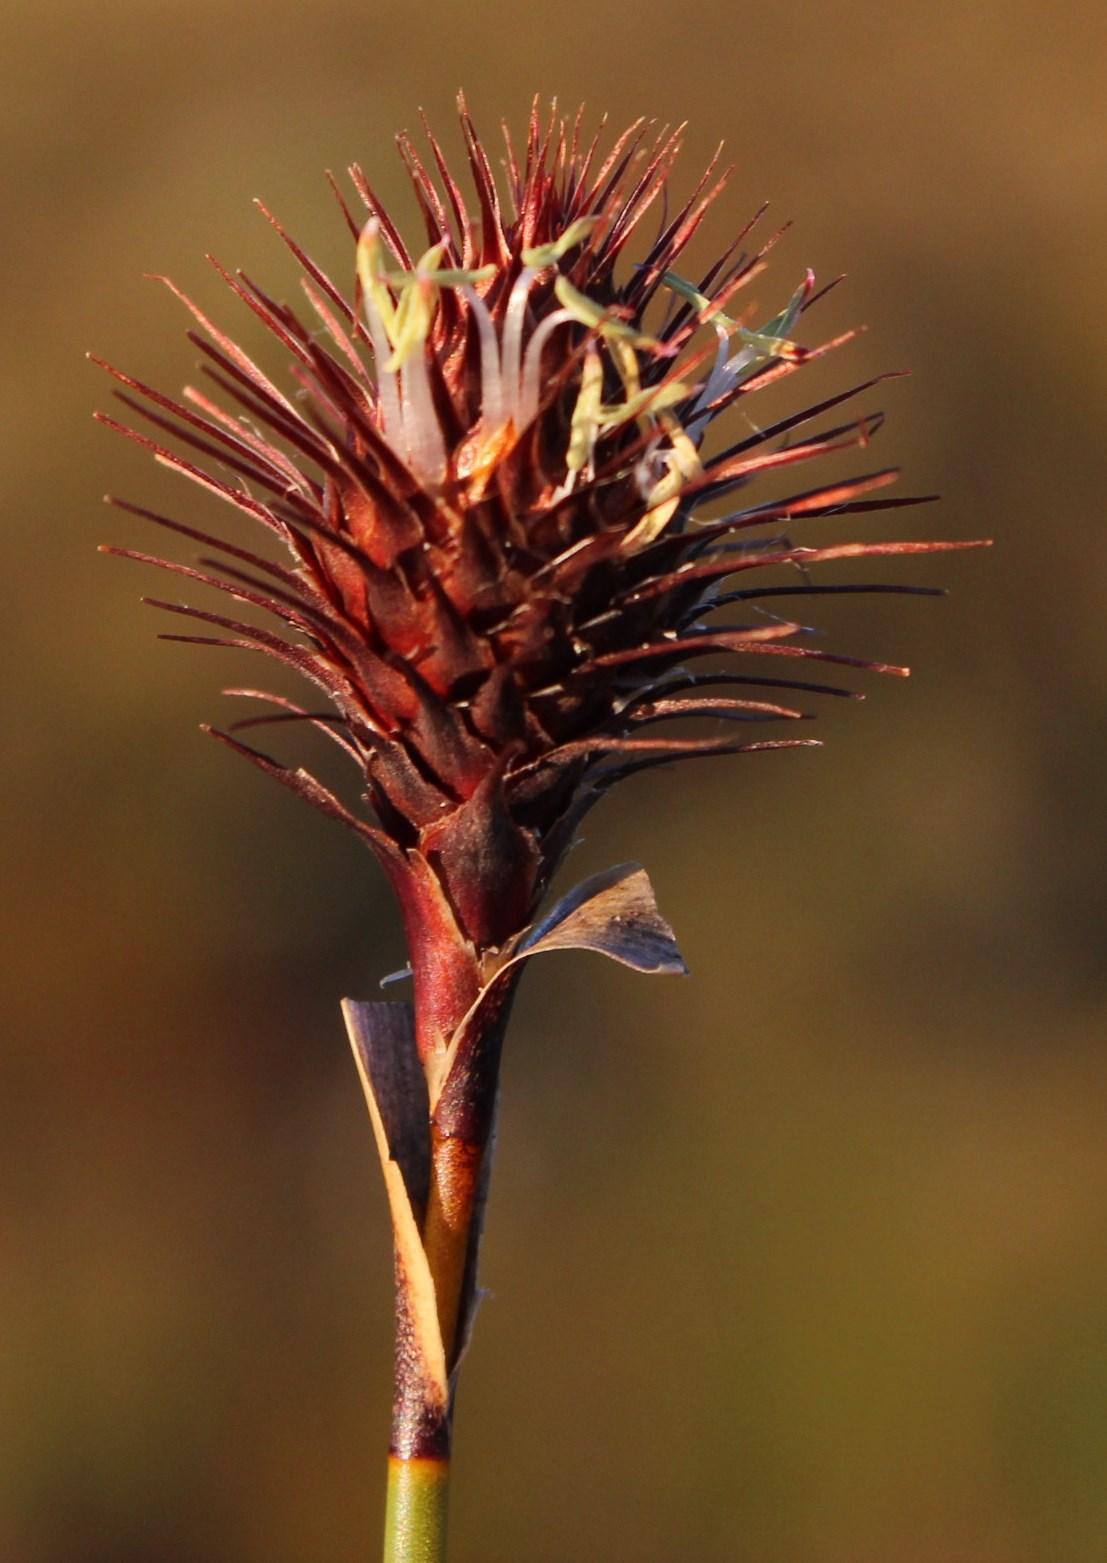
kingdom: Plantae
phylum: Tracheophyta
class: Liliopsida
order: Poales
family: Restionaceae
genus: Hypodiscus
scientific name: Hypodiscus aristatus
